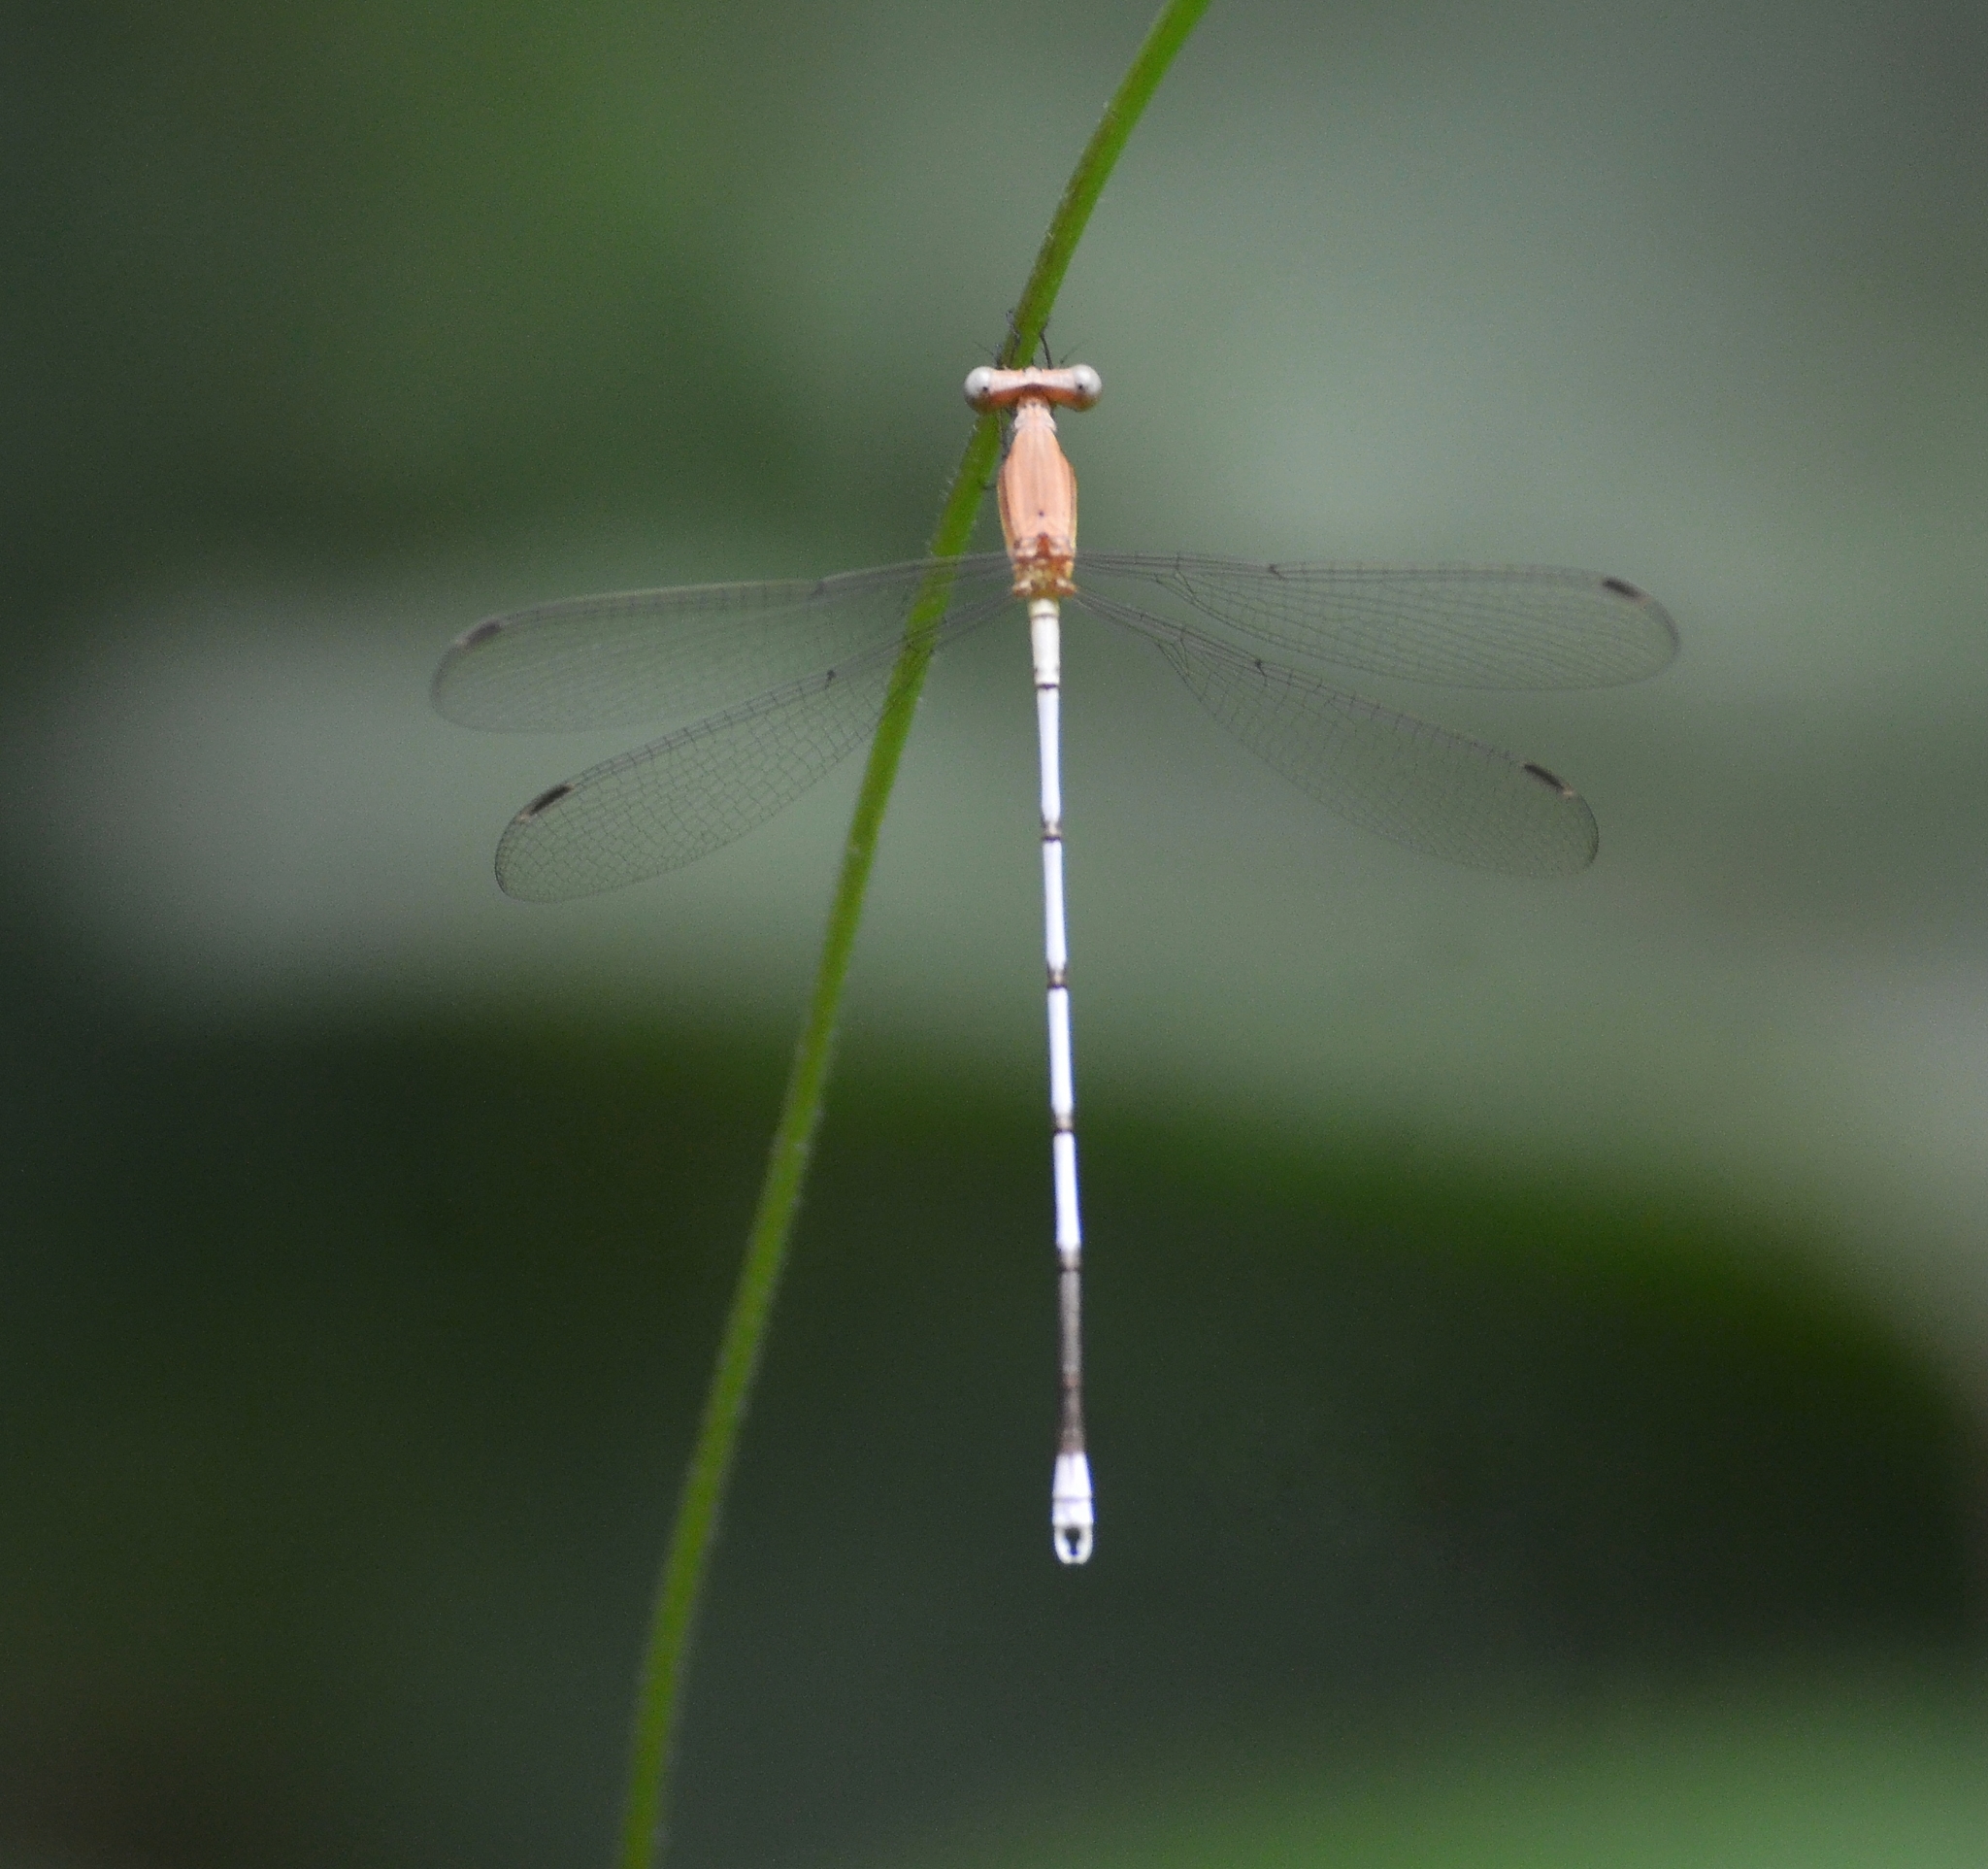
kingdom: Animalia
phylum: Arthropoda
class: Insecta
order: Odonata
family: Lestidae
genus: Lestes
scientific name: Lestes nodalis
